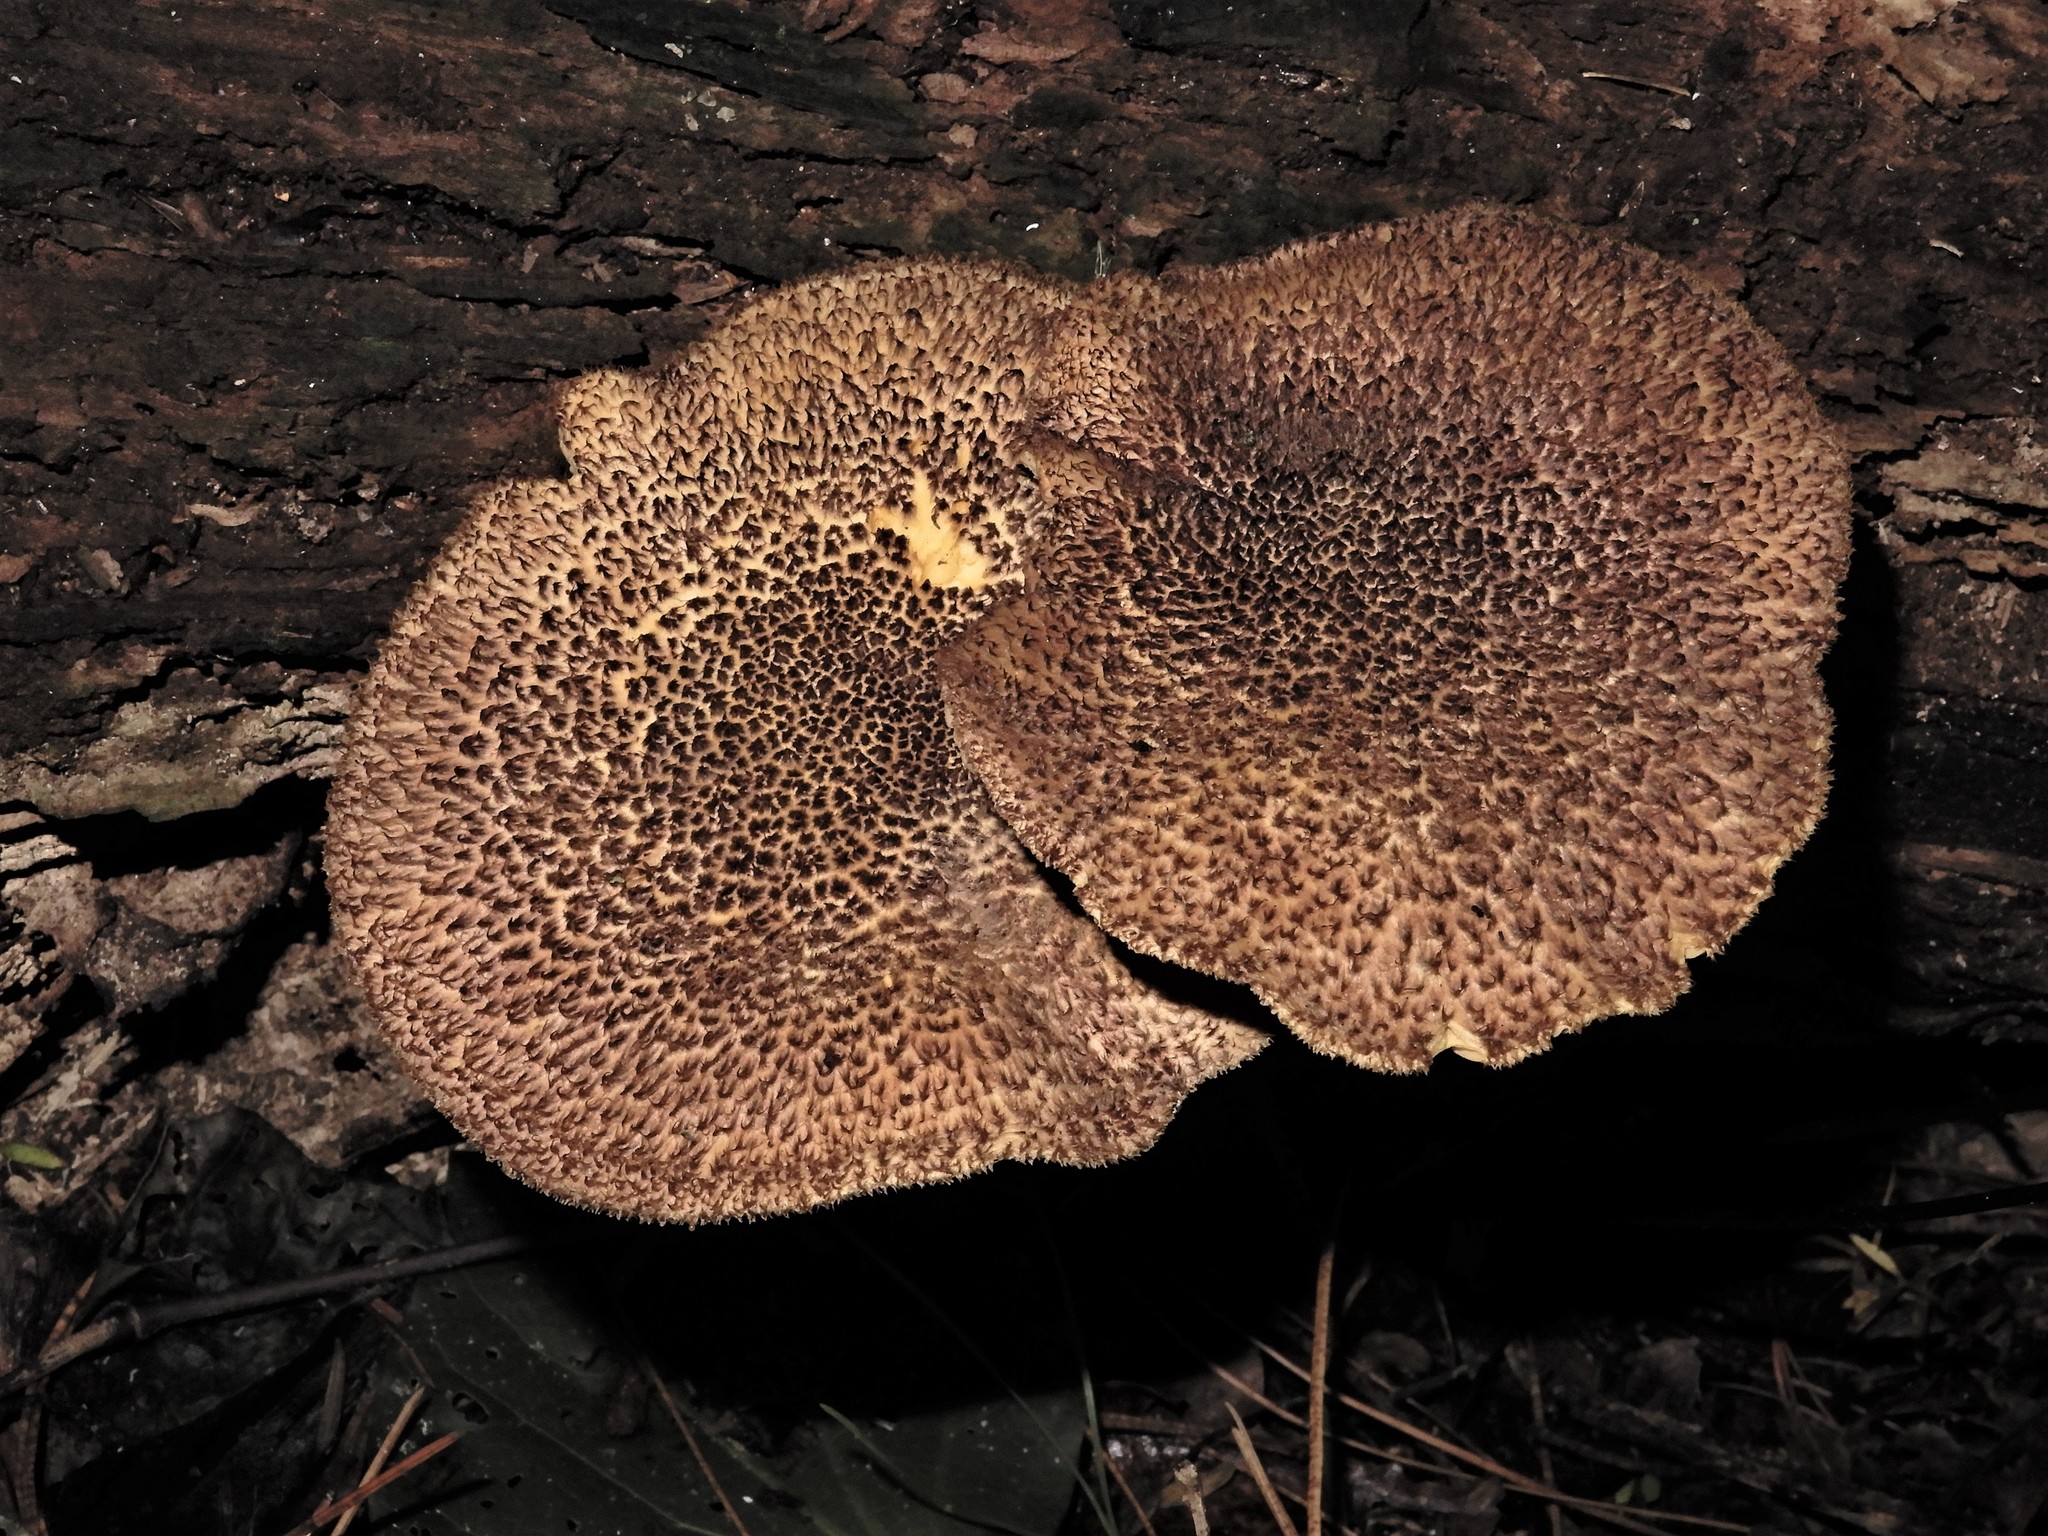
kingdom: Fungi
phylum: Basidiomycota
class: Agaricomycetes
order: Agaricales
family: Tricholomataceae
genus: Tricholomopsis
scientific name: Tricholomopsis scabra
